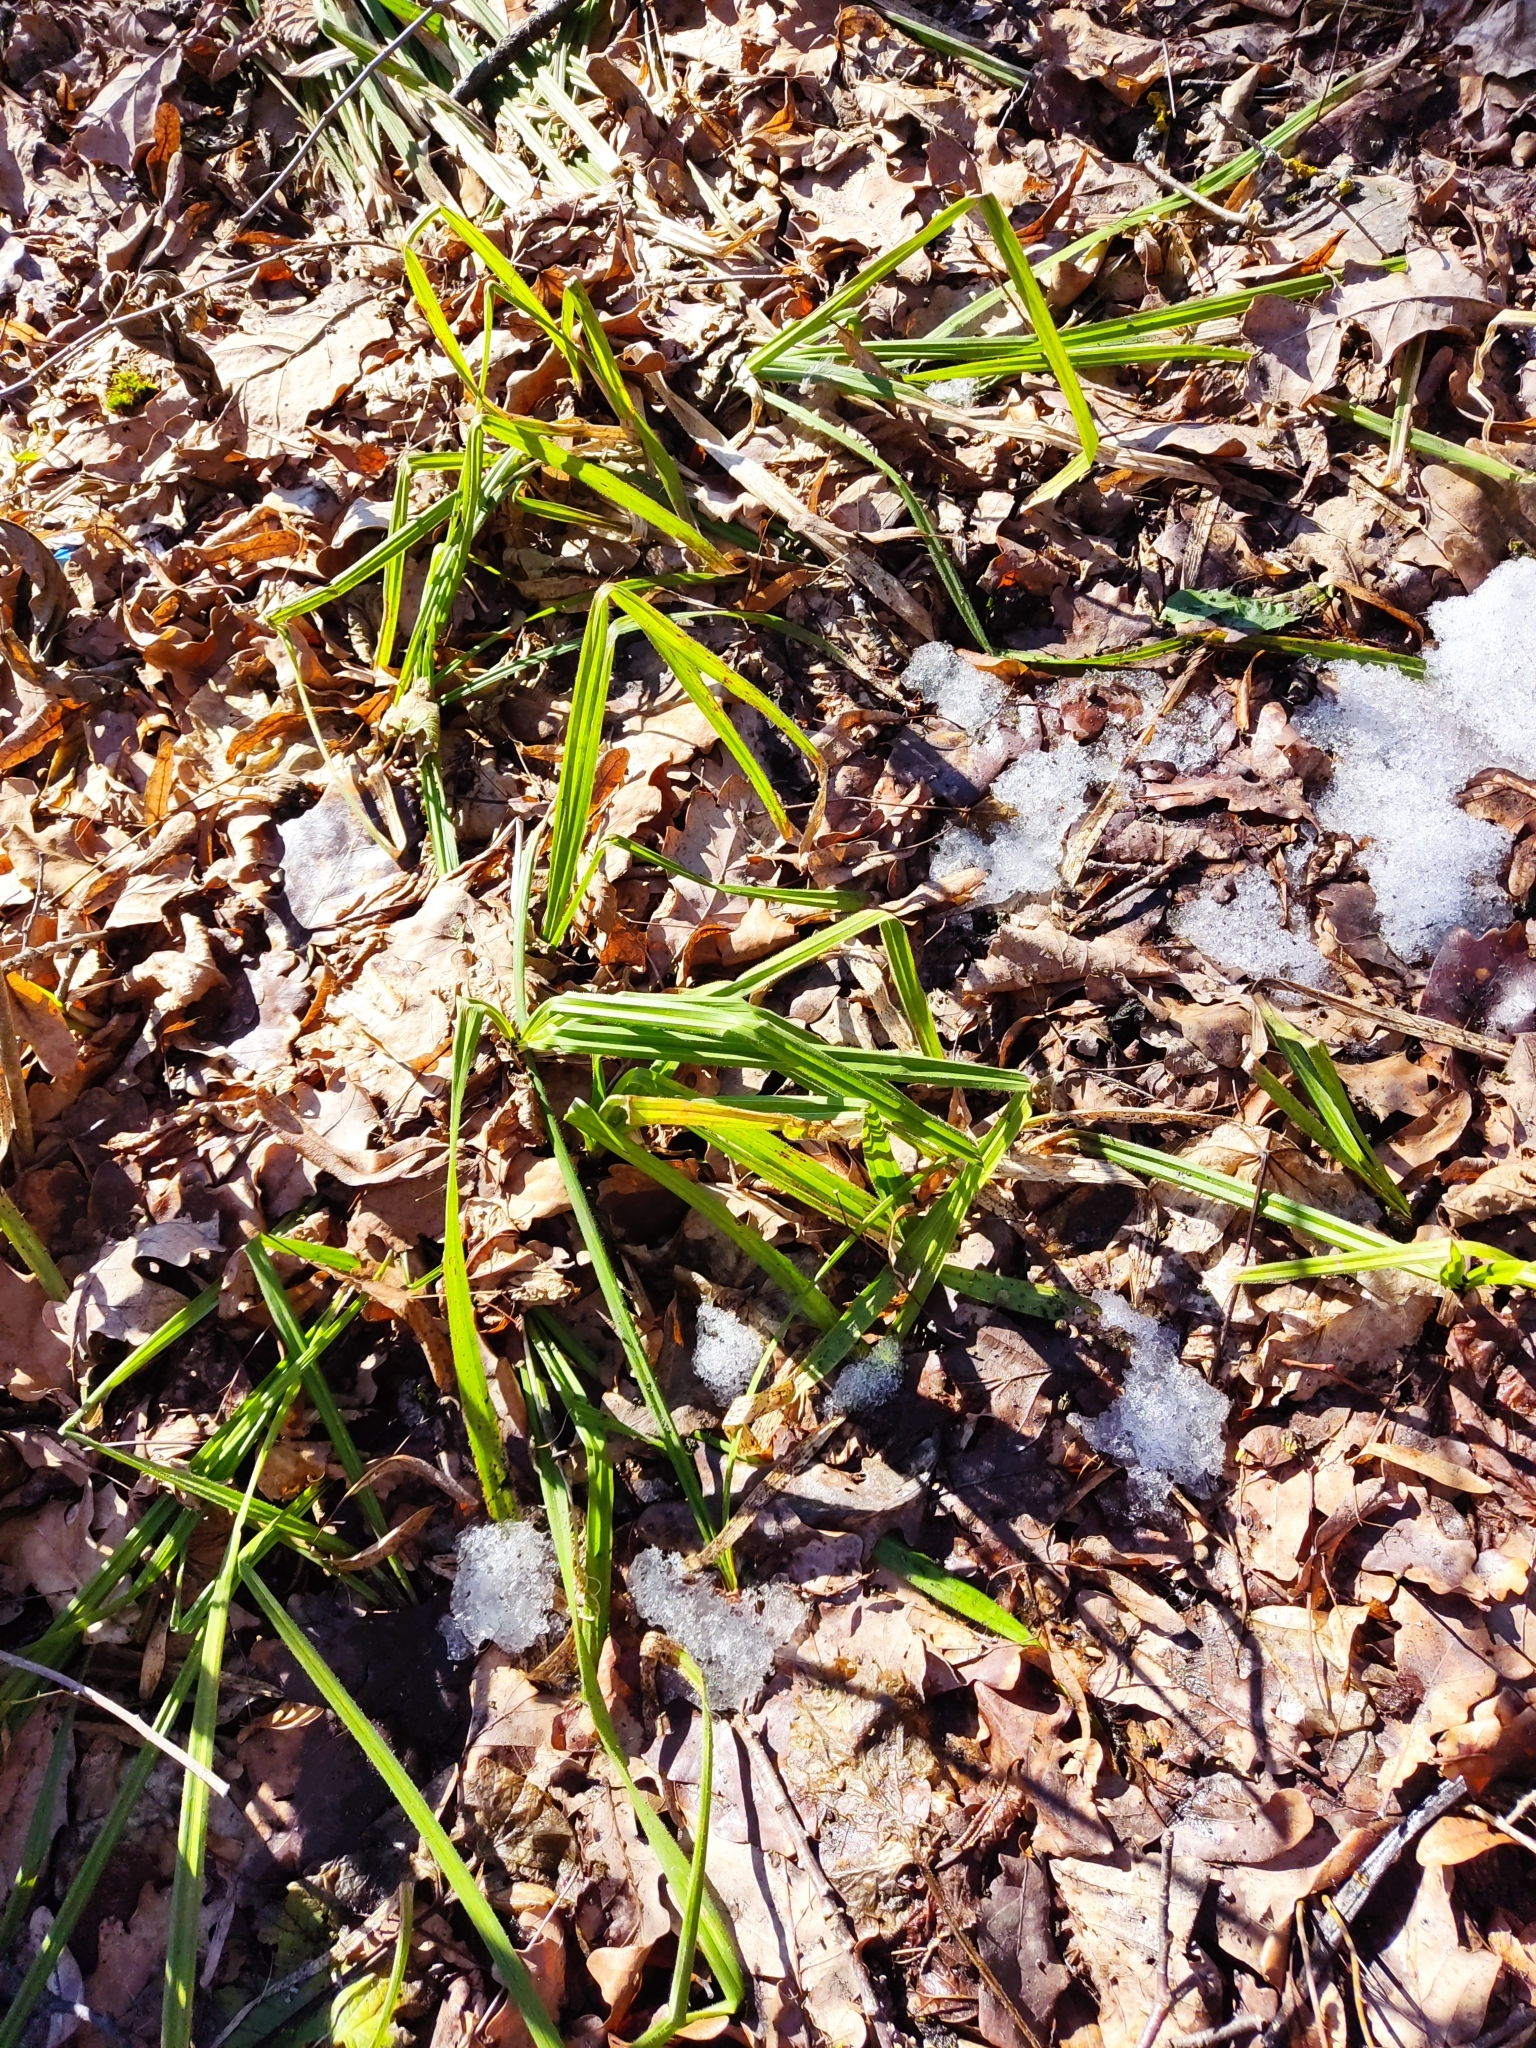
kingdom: Plantae
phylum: Tracheophyta
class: Liliopsida
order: Poales
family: Cyperaceae
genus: Carex
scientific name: Carex pilosa
